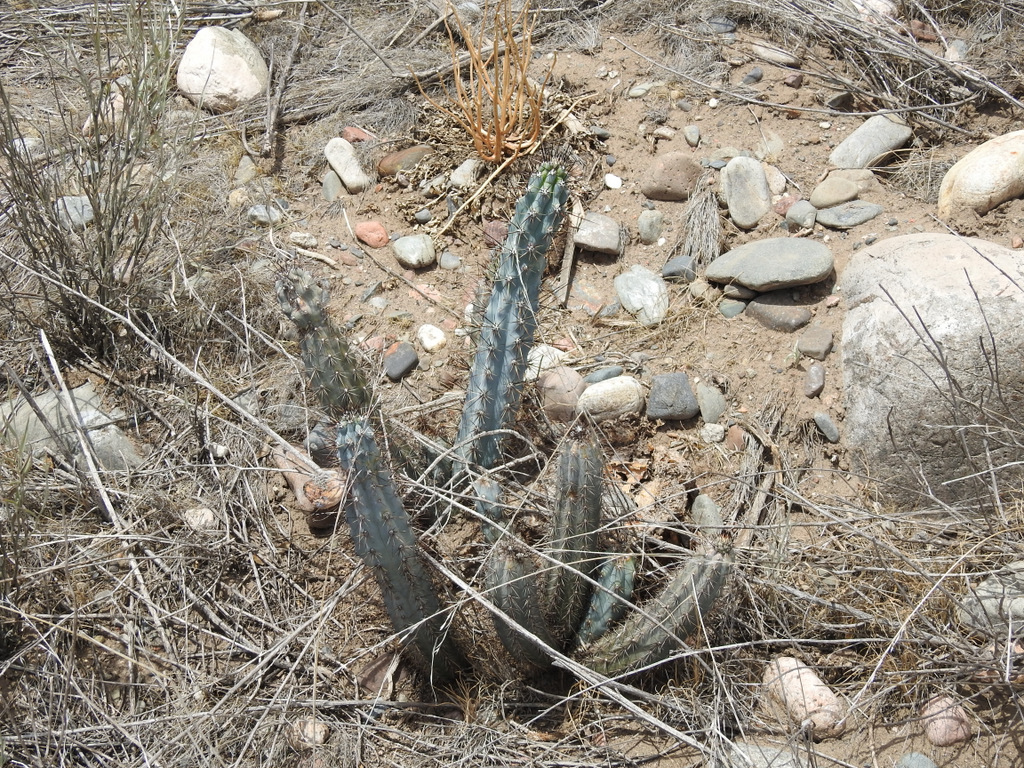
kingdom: Plantae
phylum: Tracheophyta
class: Magnoliopsida
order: Caryophyllales
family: Cactaceae
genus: Cereus
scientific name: Cereus aethiops
